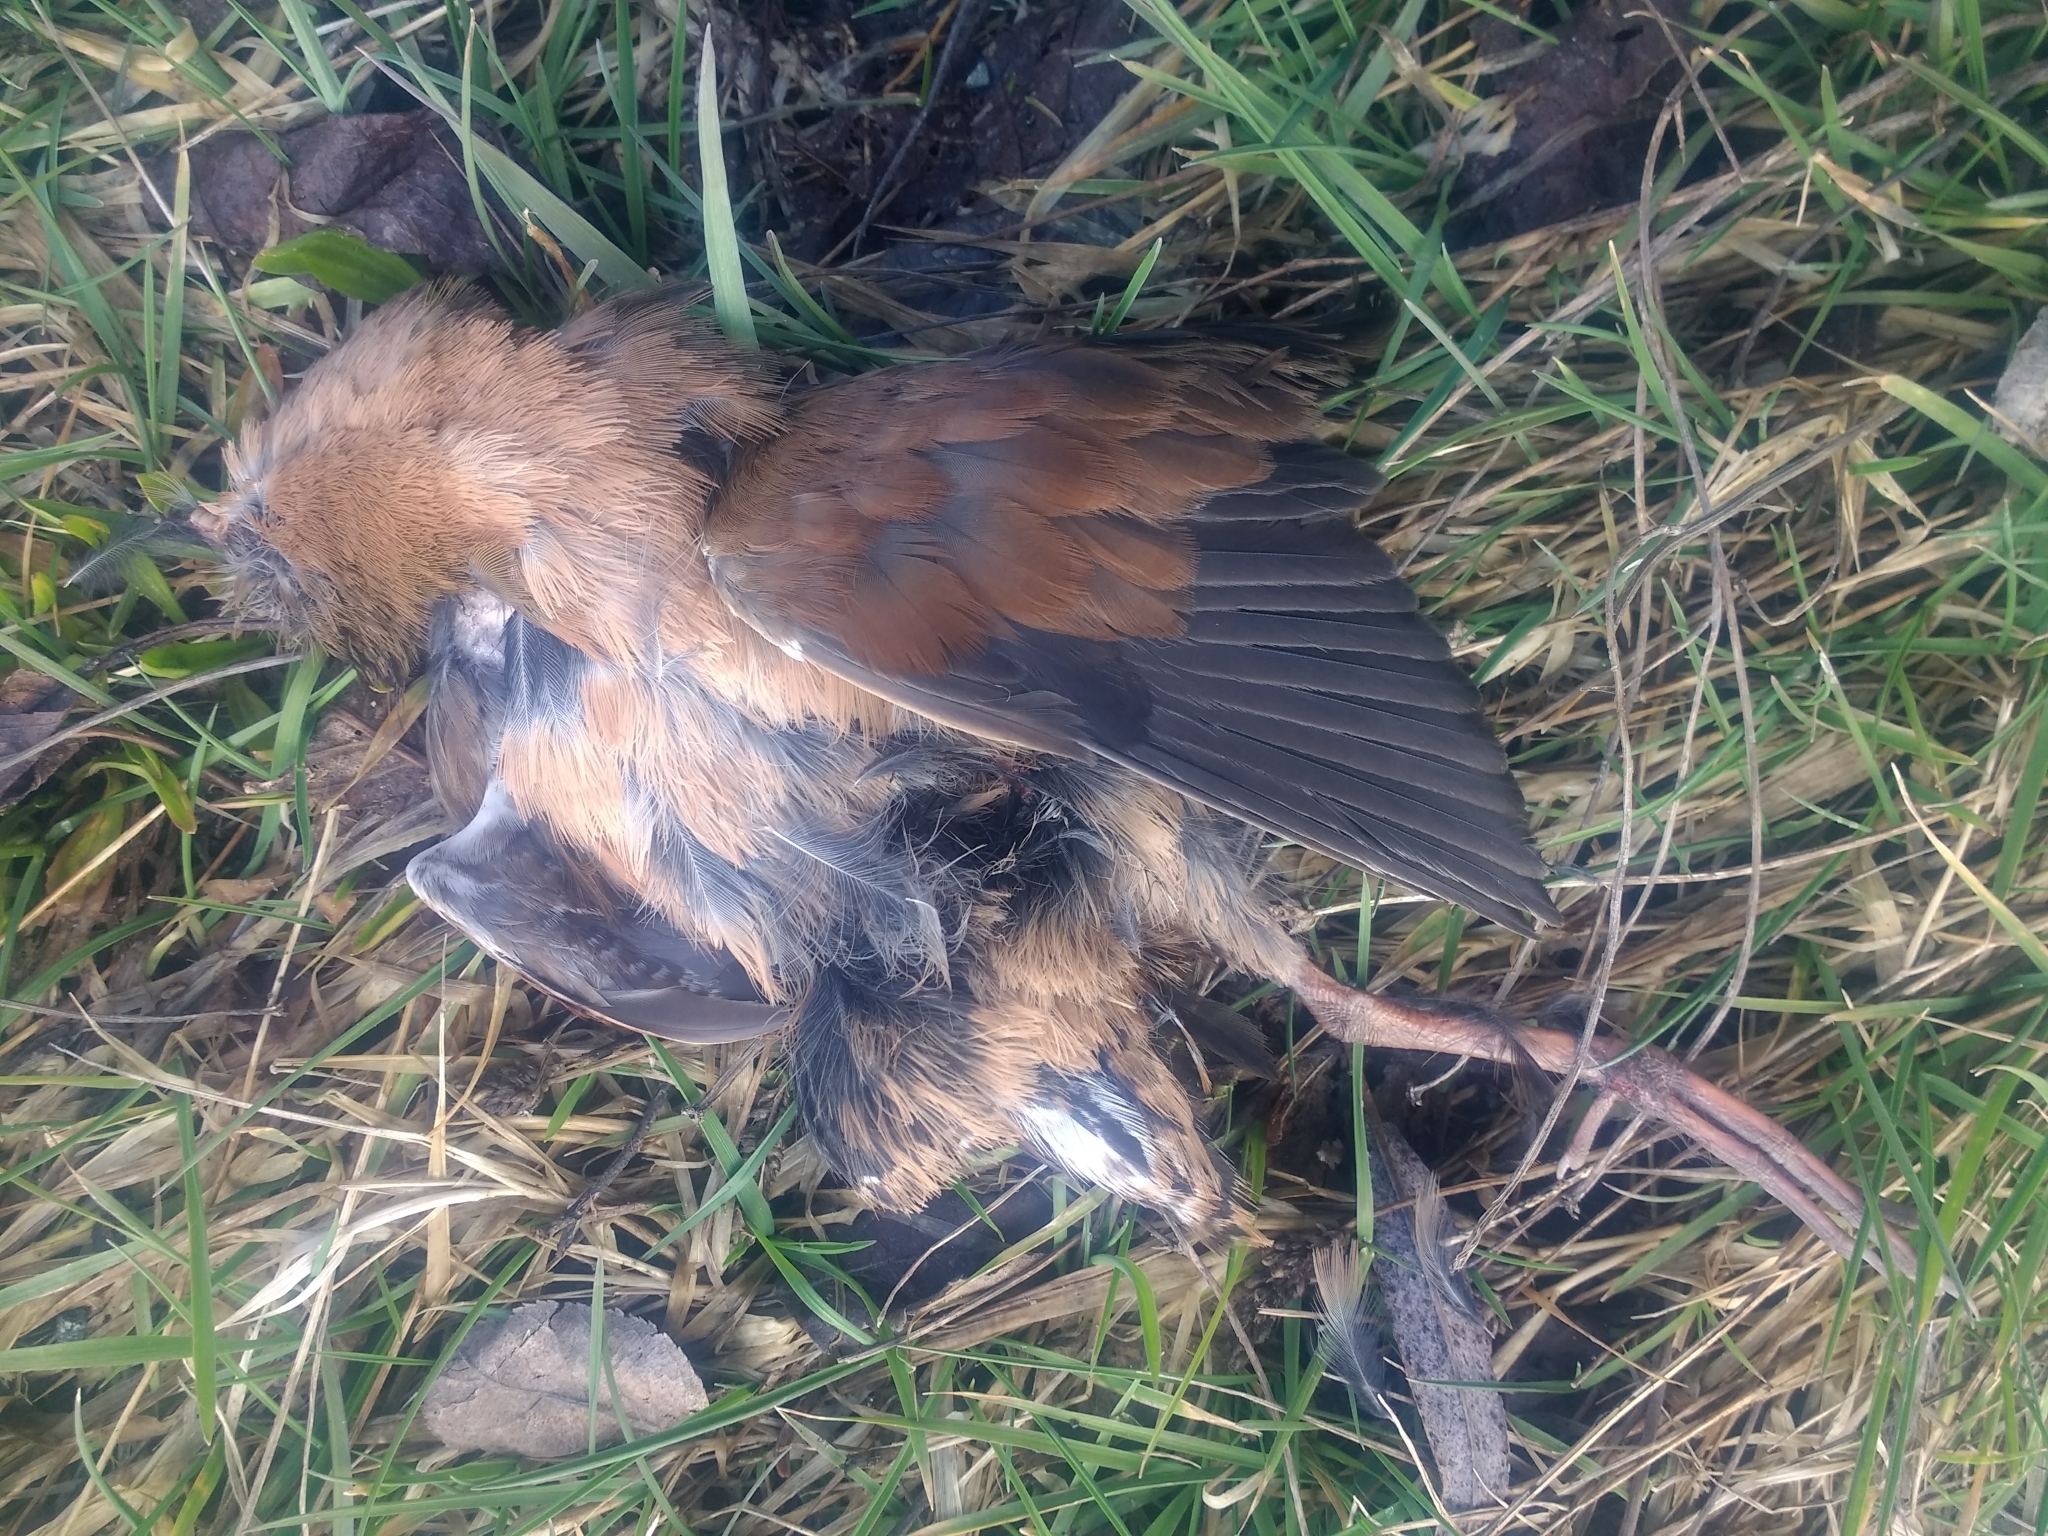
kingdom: Animalia
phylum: Chordata
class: Aves
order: Gruiformes
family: Rallidae
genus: Rallus
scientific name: Rallus limicola
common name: Virginia rail
